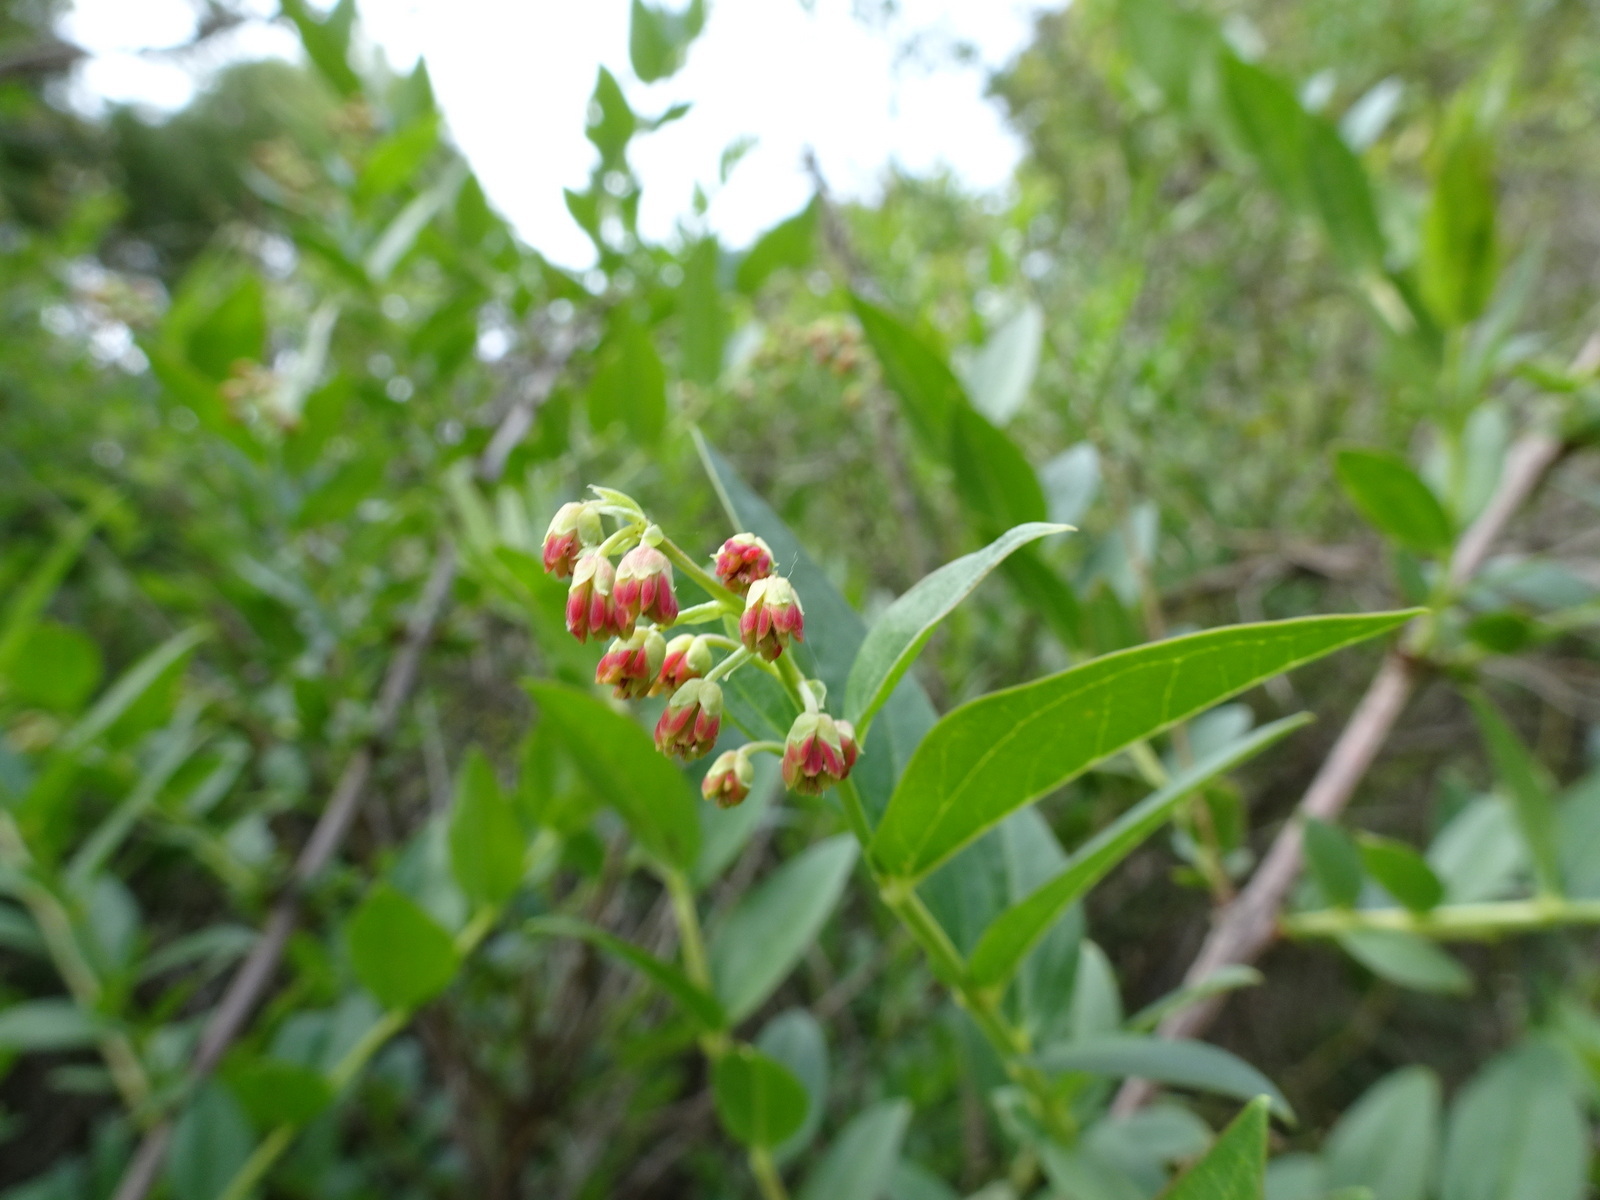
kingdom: Plantae
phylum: Tracheophyta
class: Magnoliopsida
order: Cucurbitales
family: Coriariaceae
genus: Coriaria
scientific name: Coriaria myrtifolia
